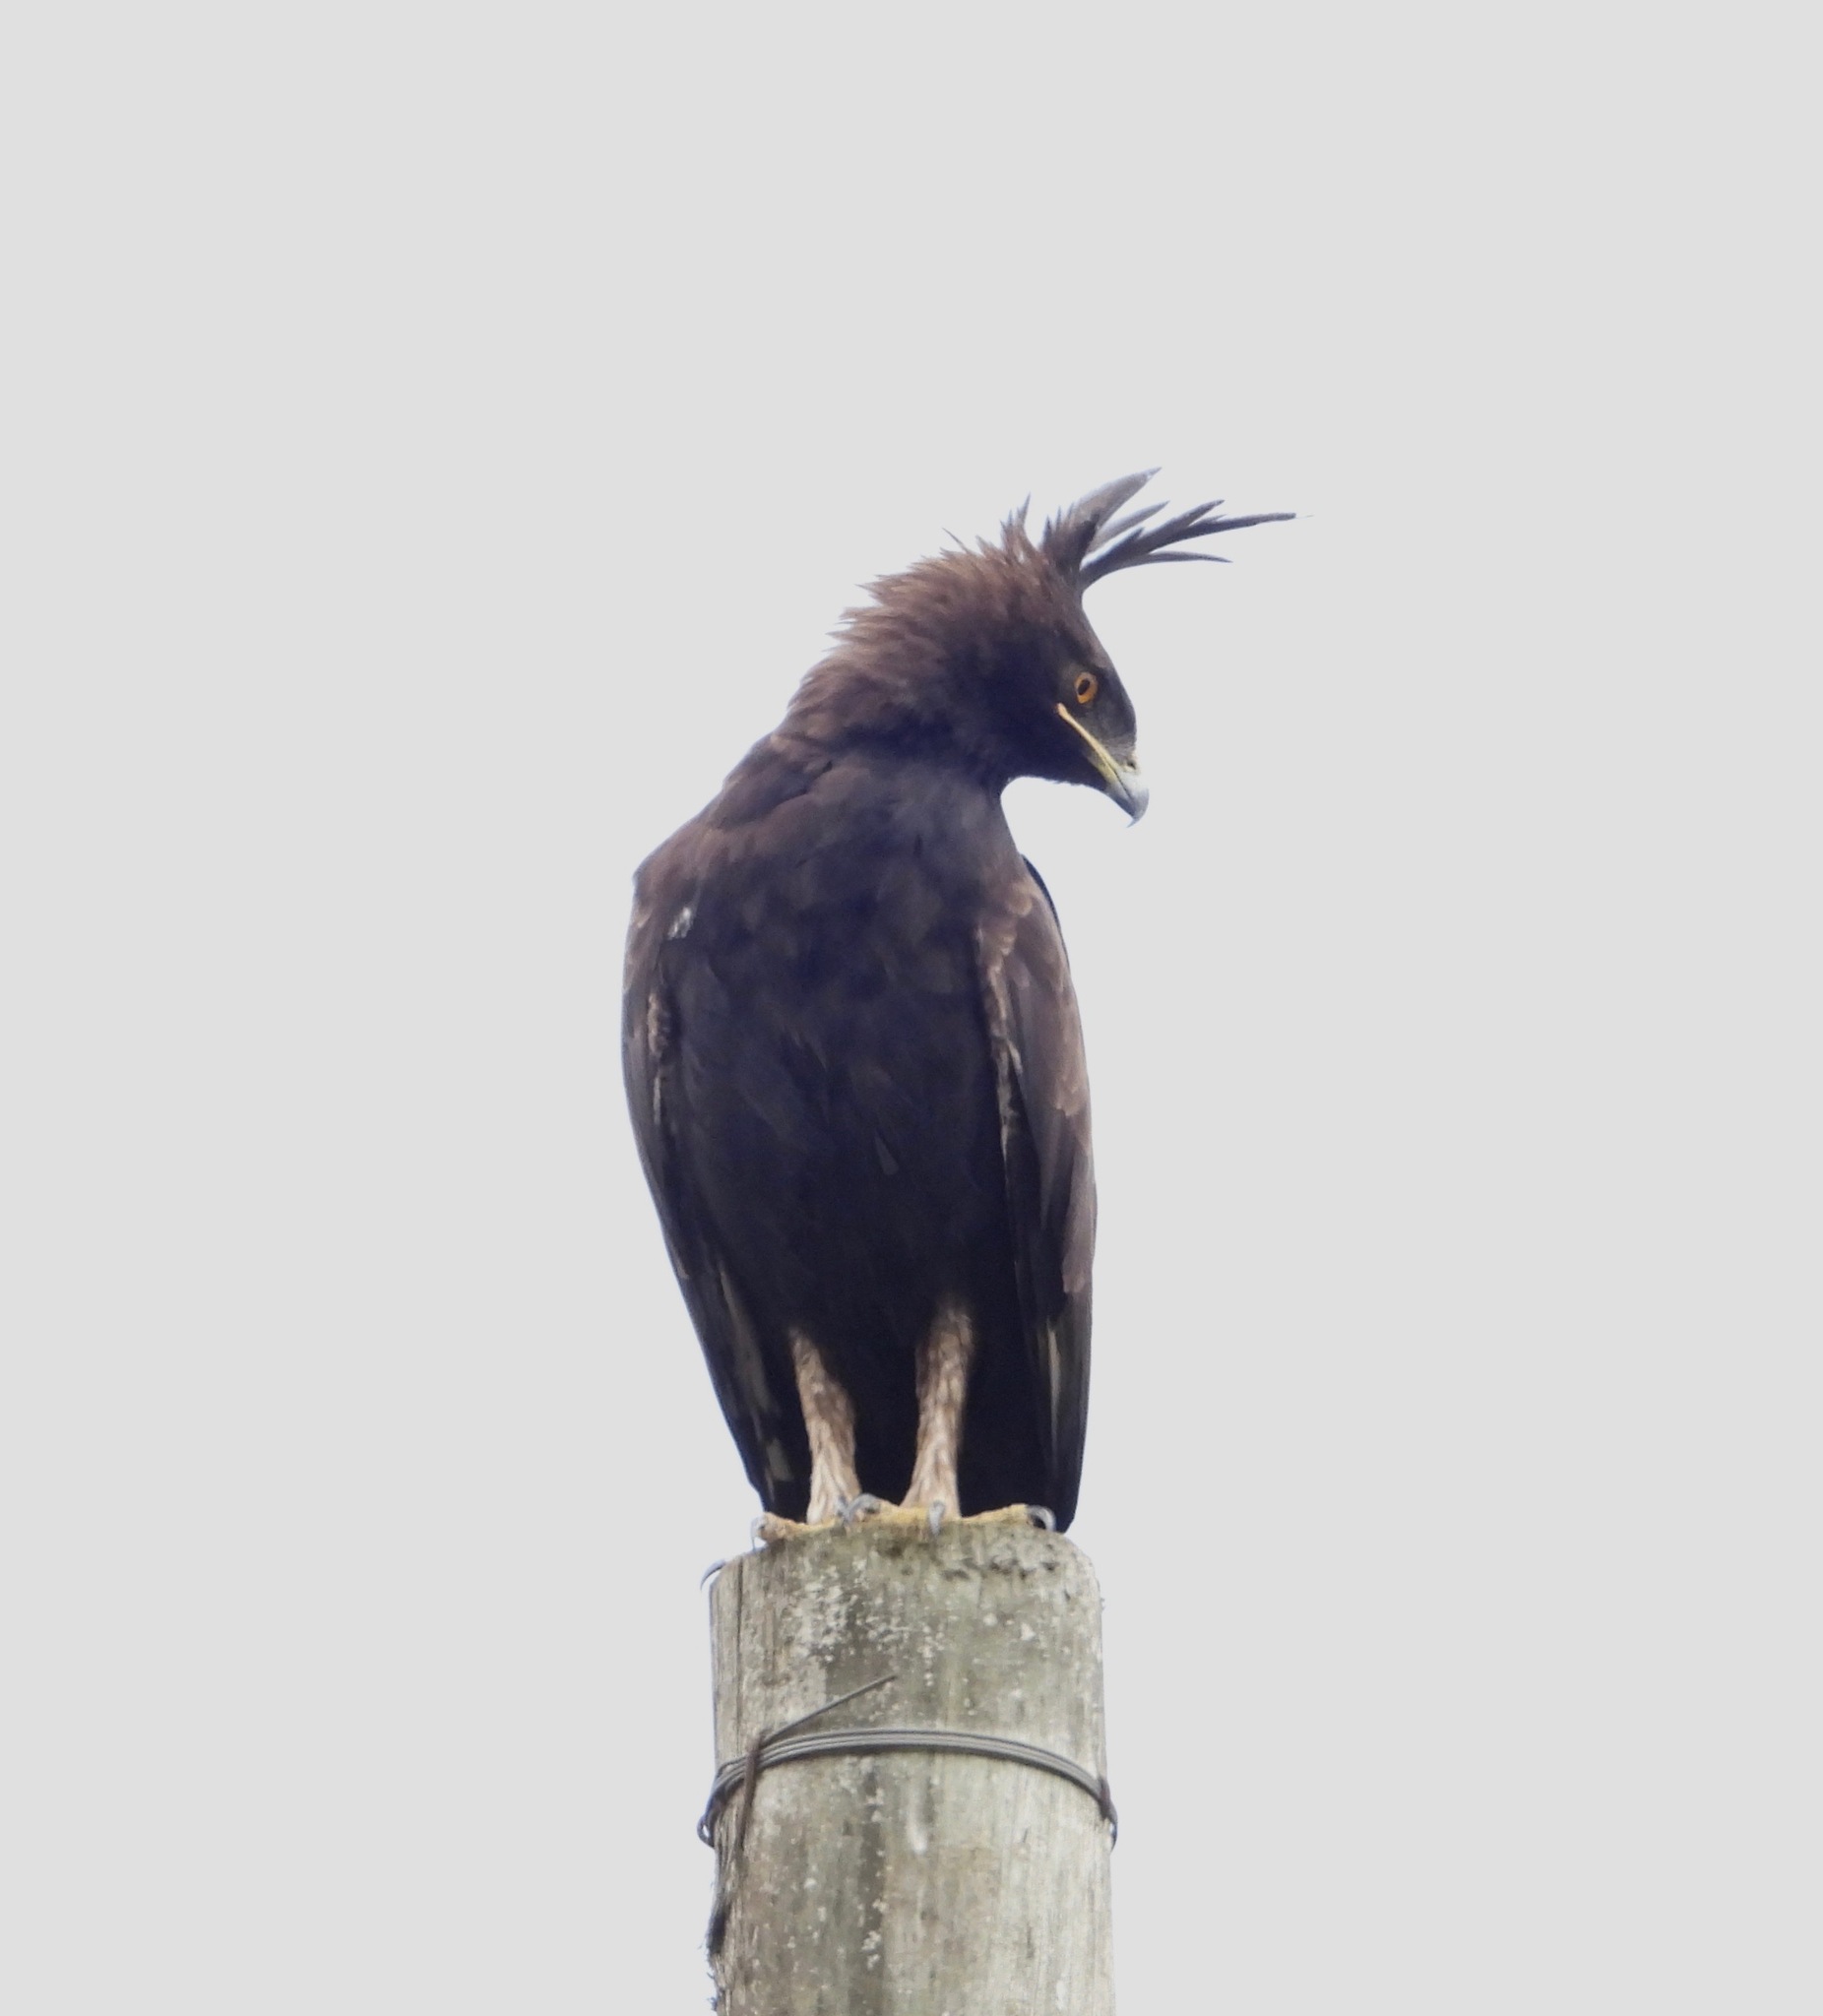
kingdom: Animalia
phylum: Chordata
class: Aves
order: Accipitriformes
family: Accipitridae
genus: Lophaetus
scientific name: Lophaetus occipitalis
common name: Long-crested eagle
